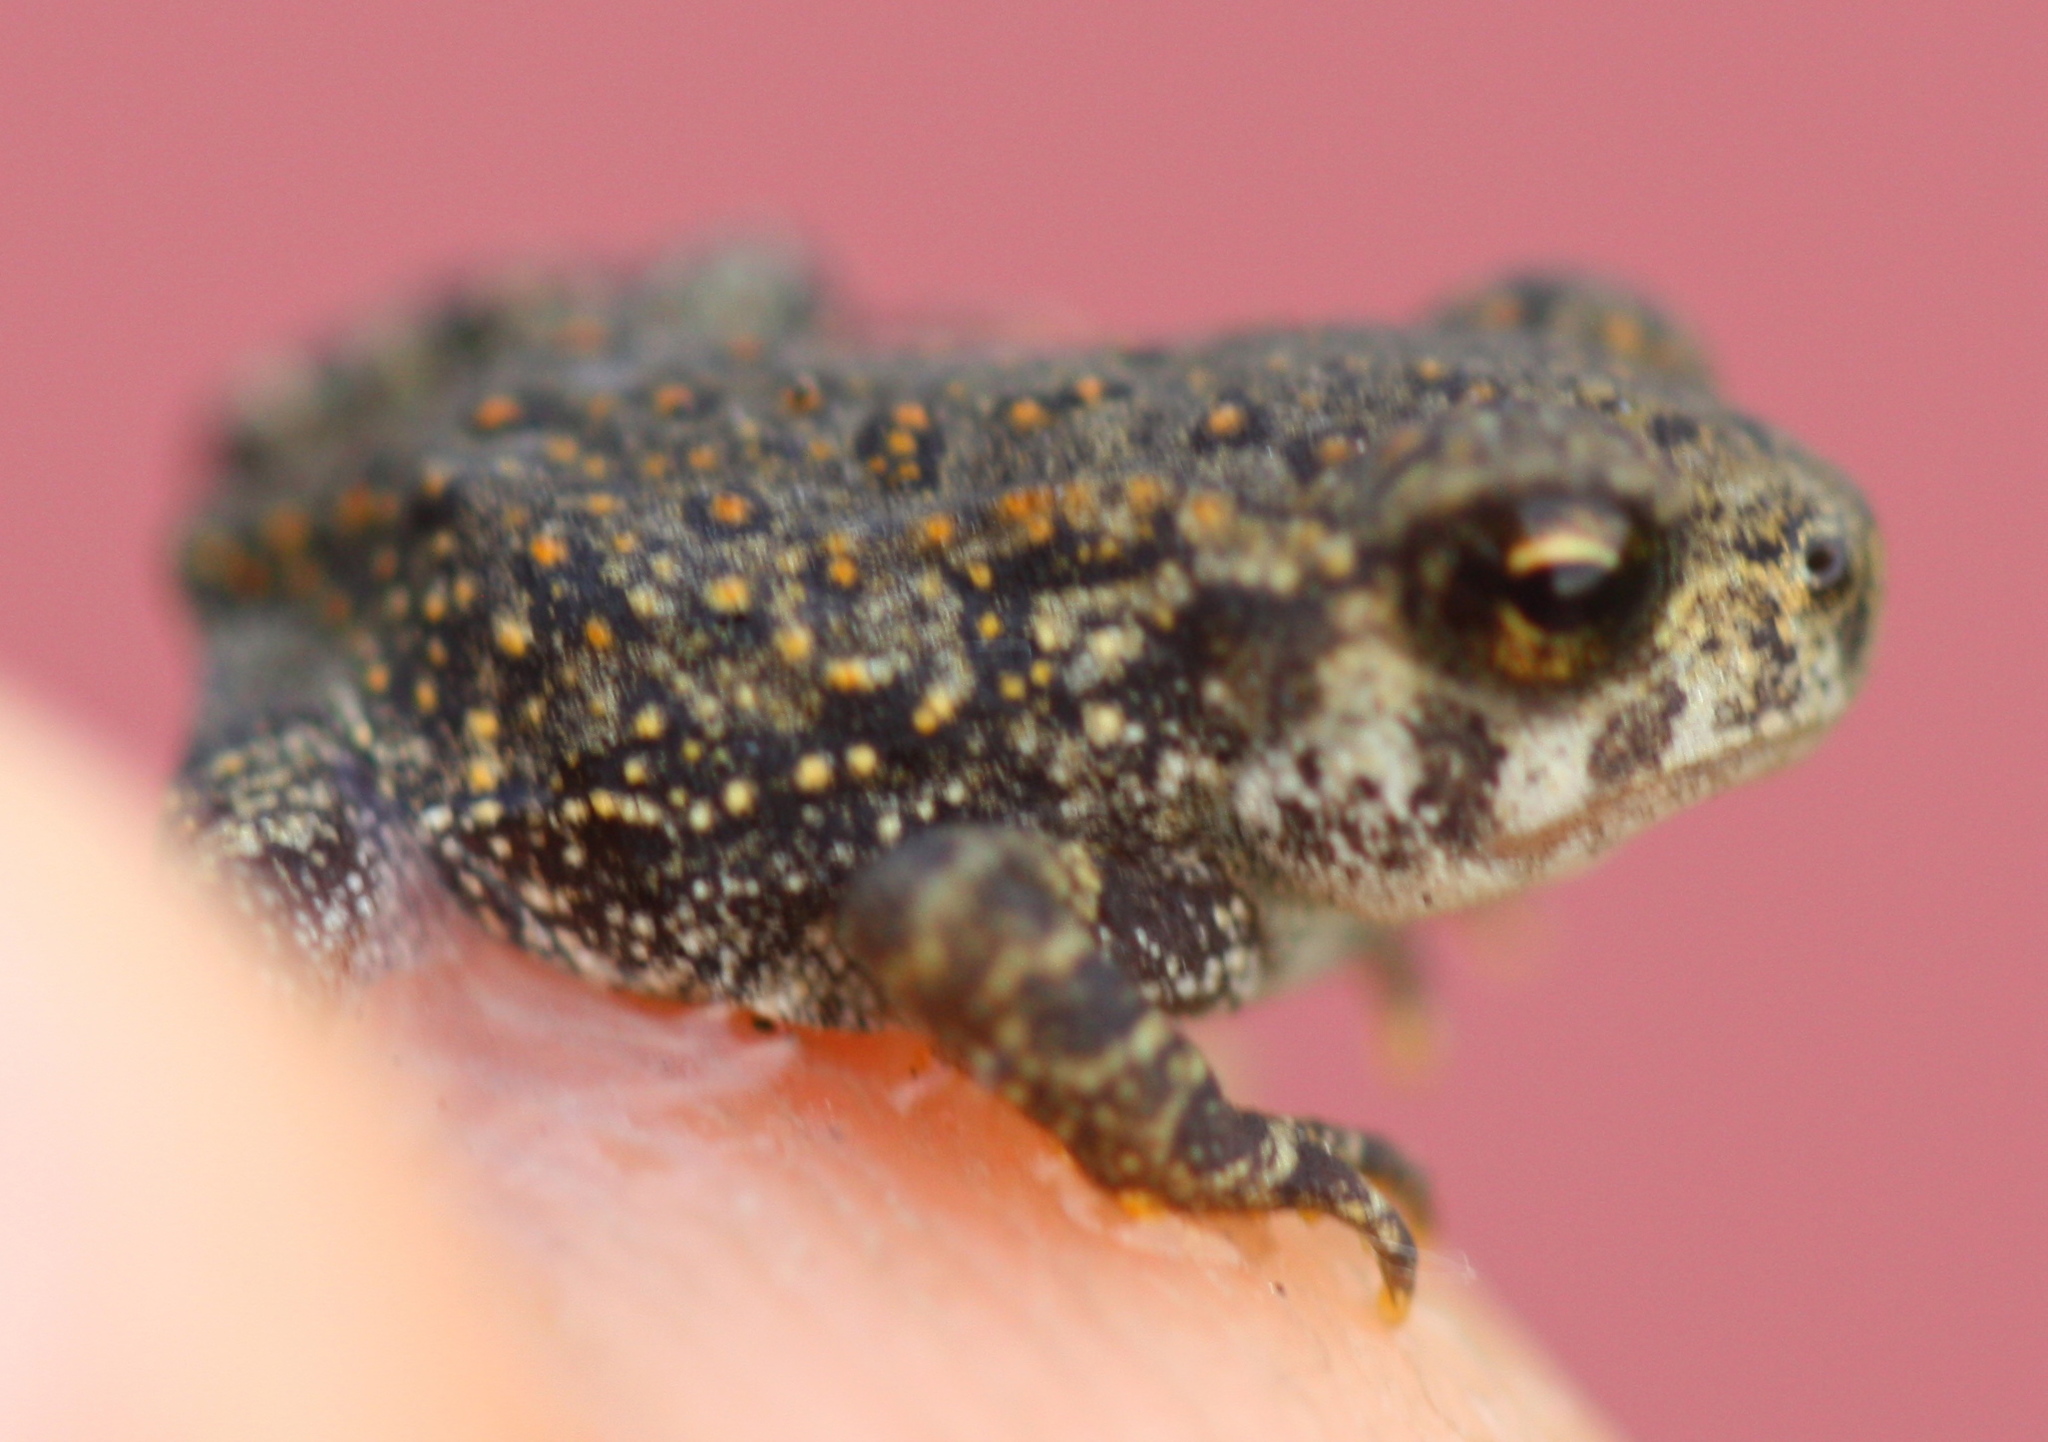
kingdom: Animalia
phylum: Chordata
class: Amphibia
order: Anura
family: Bufonidae
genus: Anaxyrus
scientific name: Anaxyrus americanus
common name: American toad
